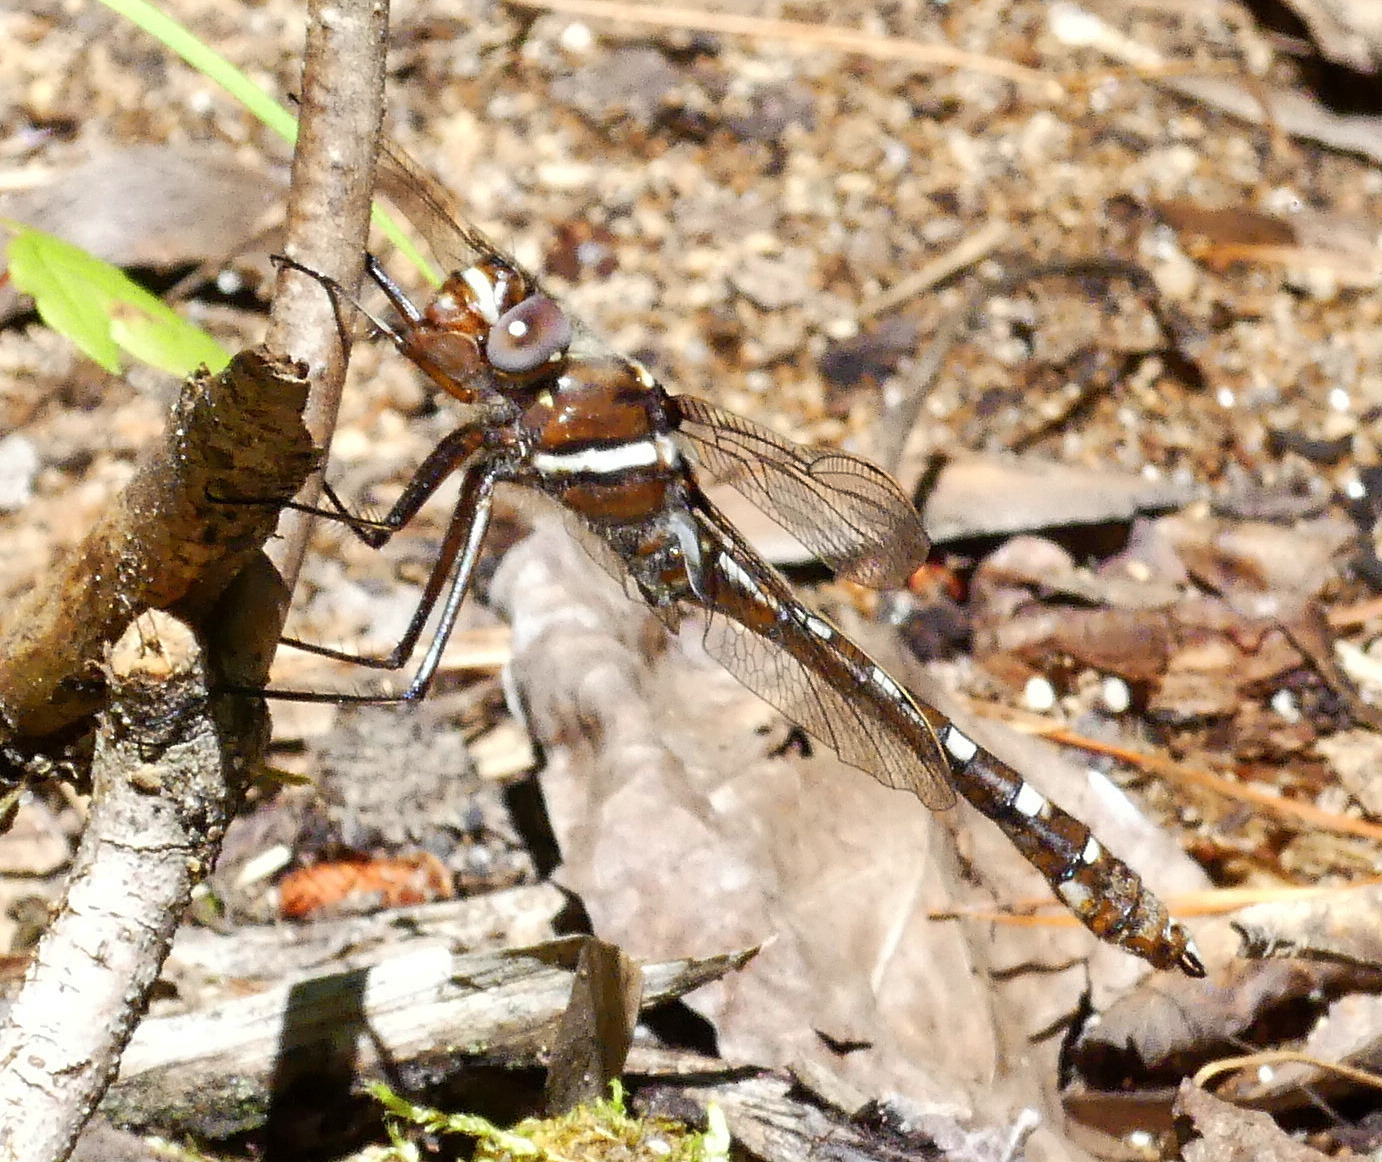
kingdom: Animalia
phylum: Arthropoda
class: Insecta
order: Odonata
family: Macromiidae
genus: Didymops
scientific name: Didymops transversa
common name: Stream cruiser
